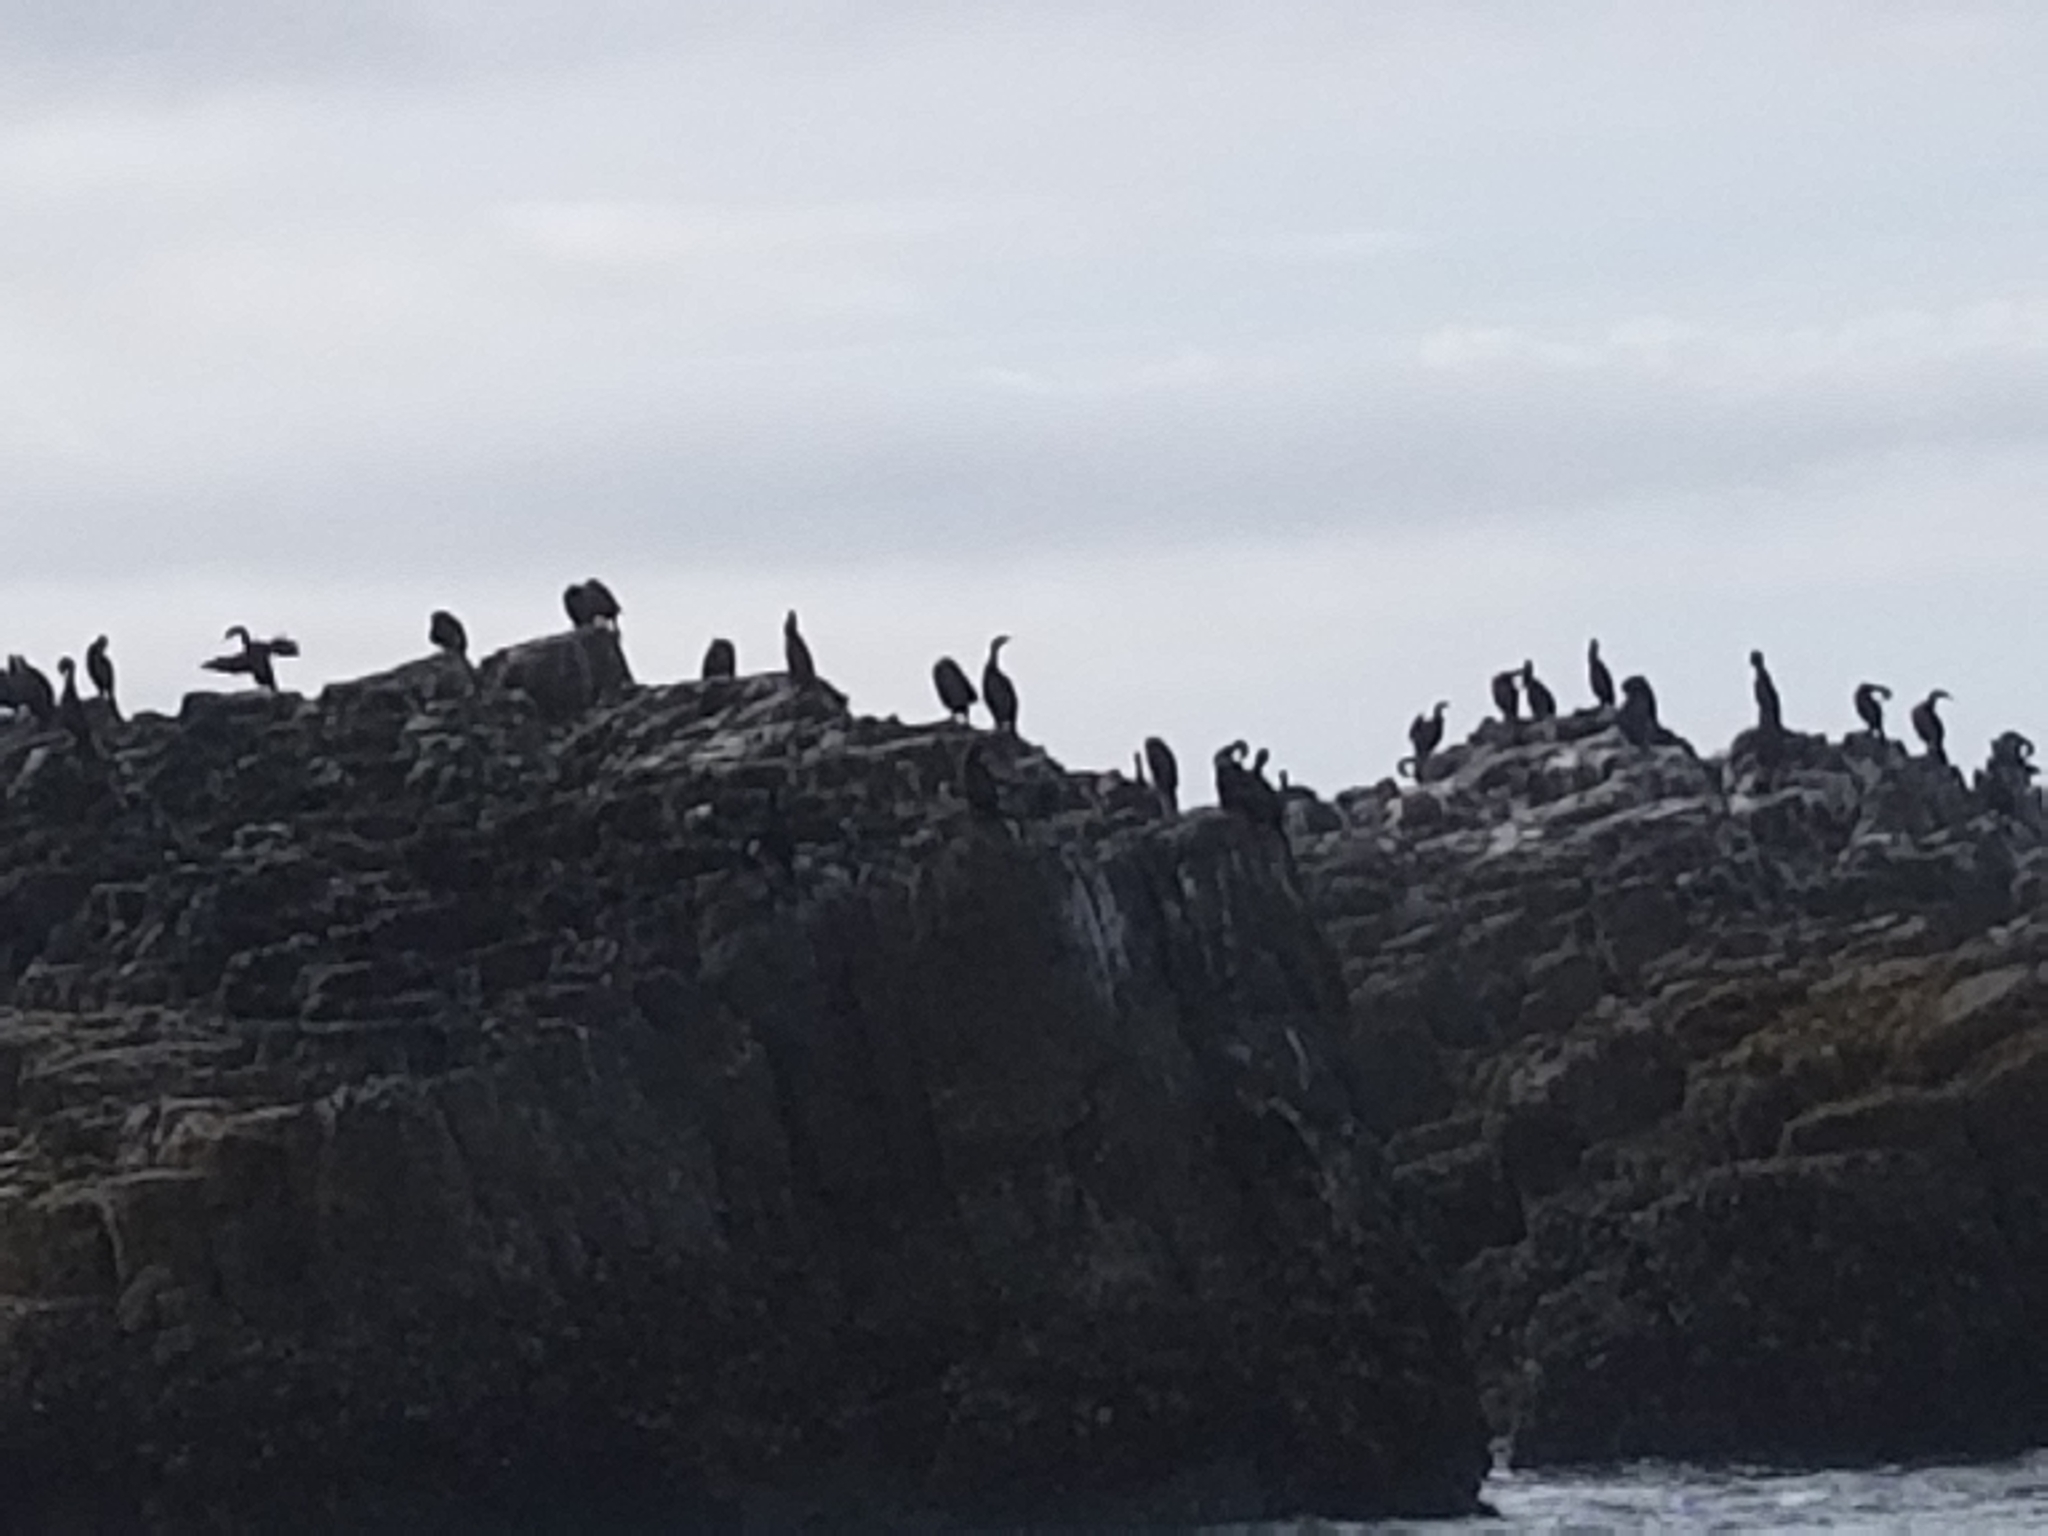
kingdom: Animalia
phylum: Chordata
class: Aves
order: Suliformes
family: Phalacrocoracidae
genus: Phalacrocorax
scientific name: Phalacrocorax pelagicus
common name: Pelagic cormorant
